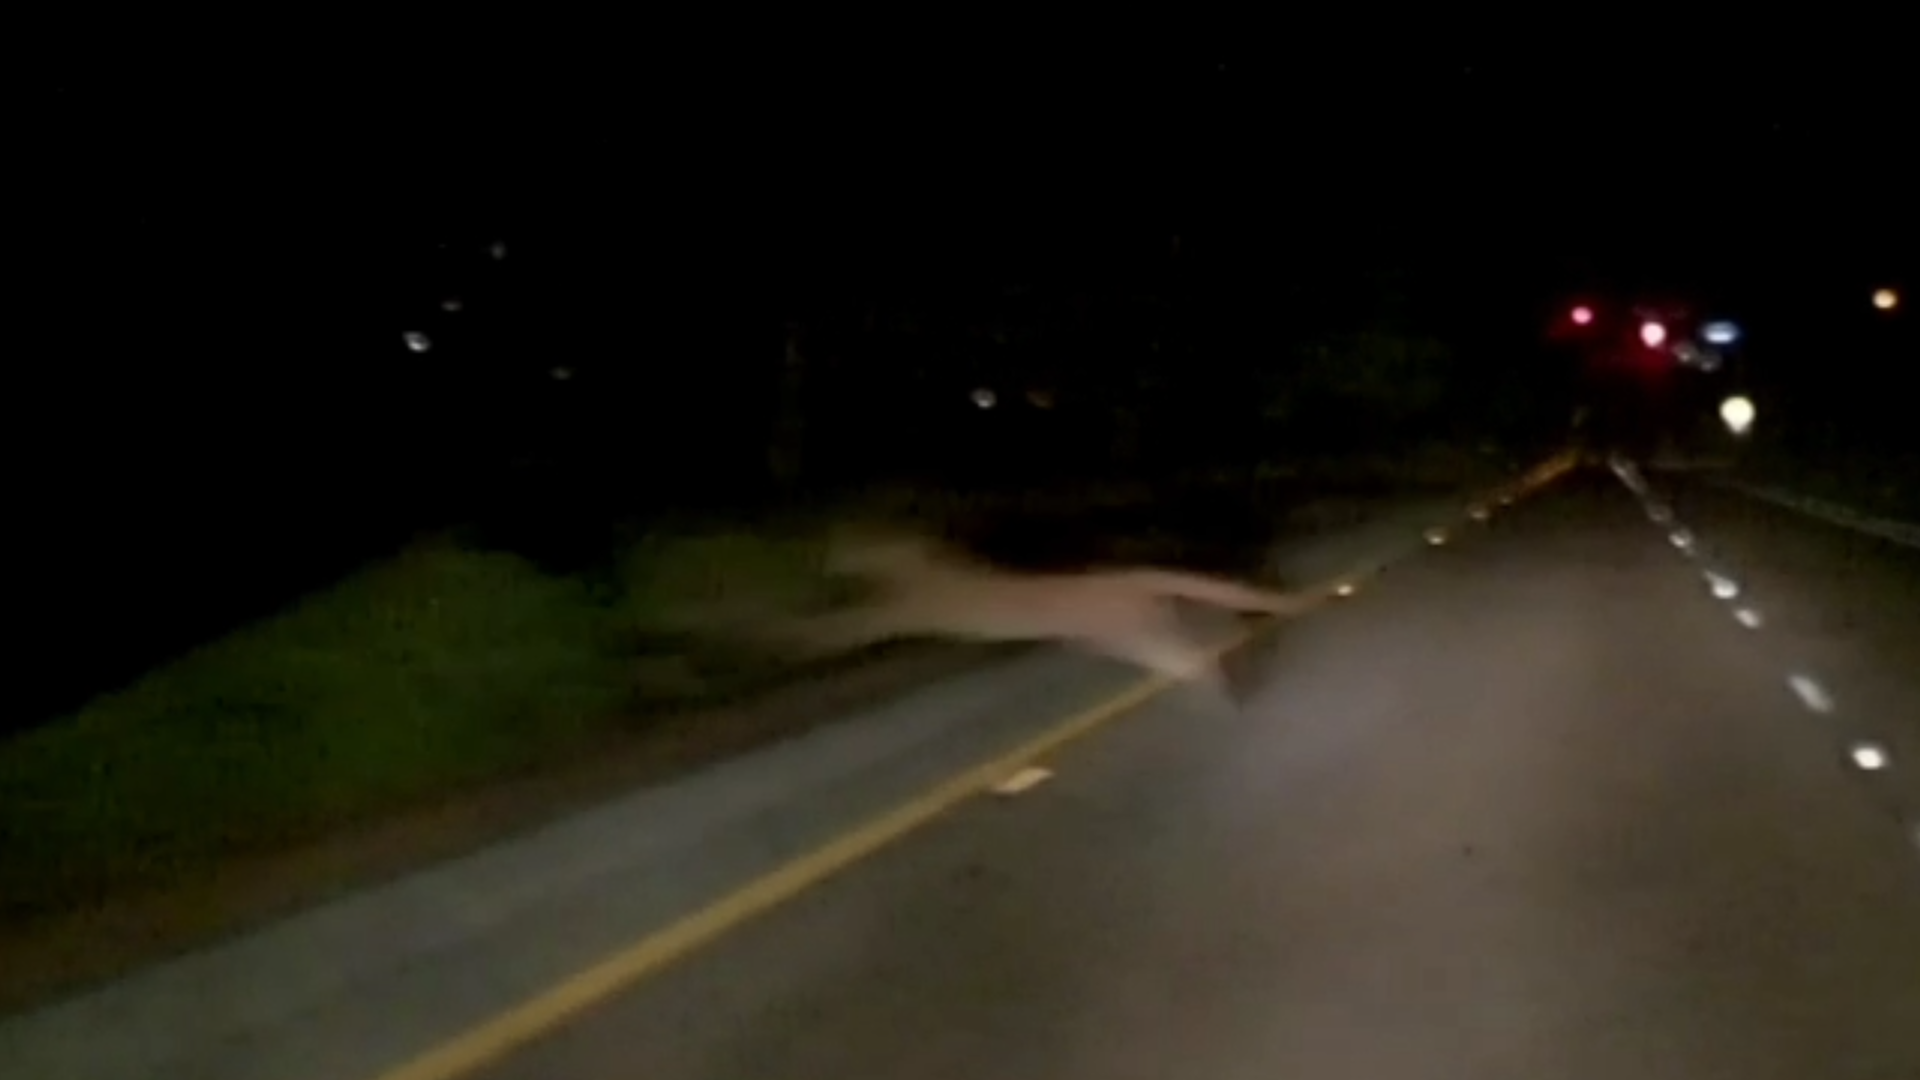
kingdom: Animalia
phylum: Chordata
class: Mammalia
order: Carnivora
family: Felidae
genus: Puma
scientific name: Puma concolor
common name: Puma
